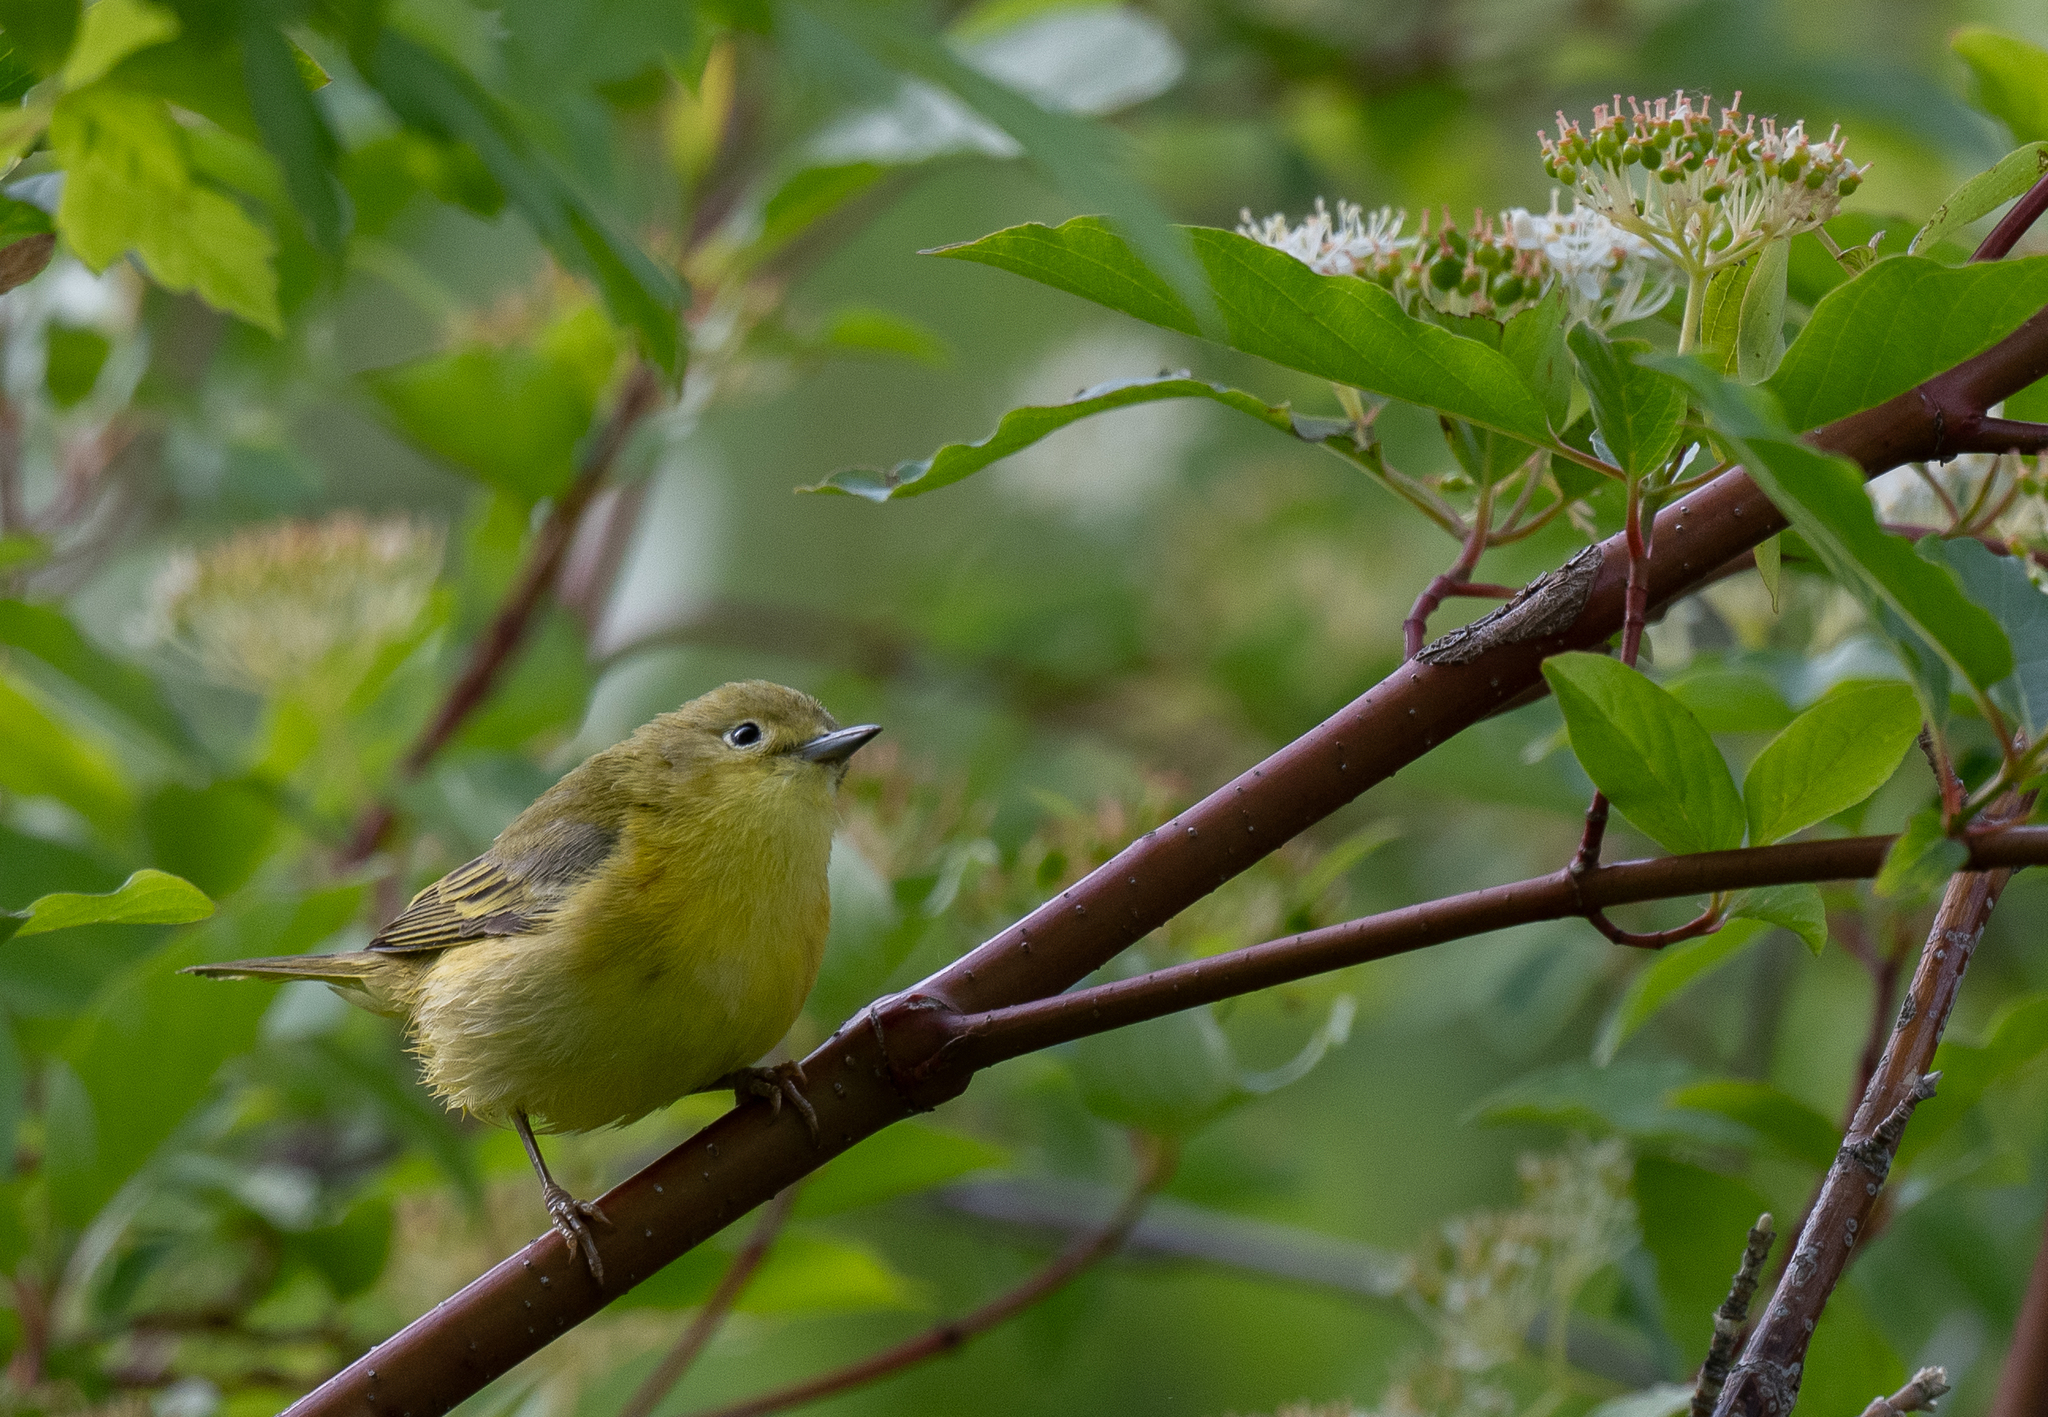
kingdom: Animalia
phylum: Chordata
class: Aves
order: Passeriformes
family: Parulidae
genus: Setophaga
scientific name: Setophaga petechia
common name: Yellow warbler
